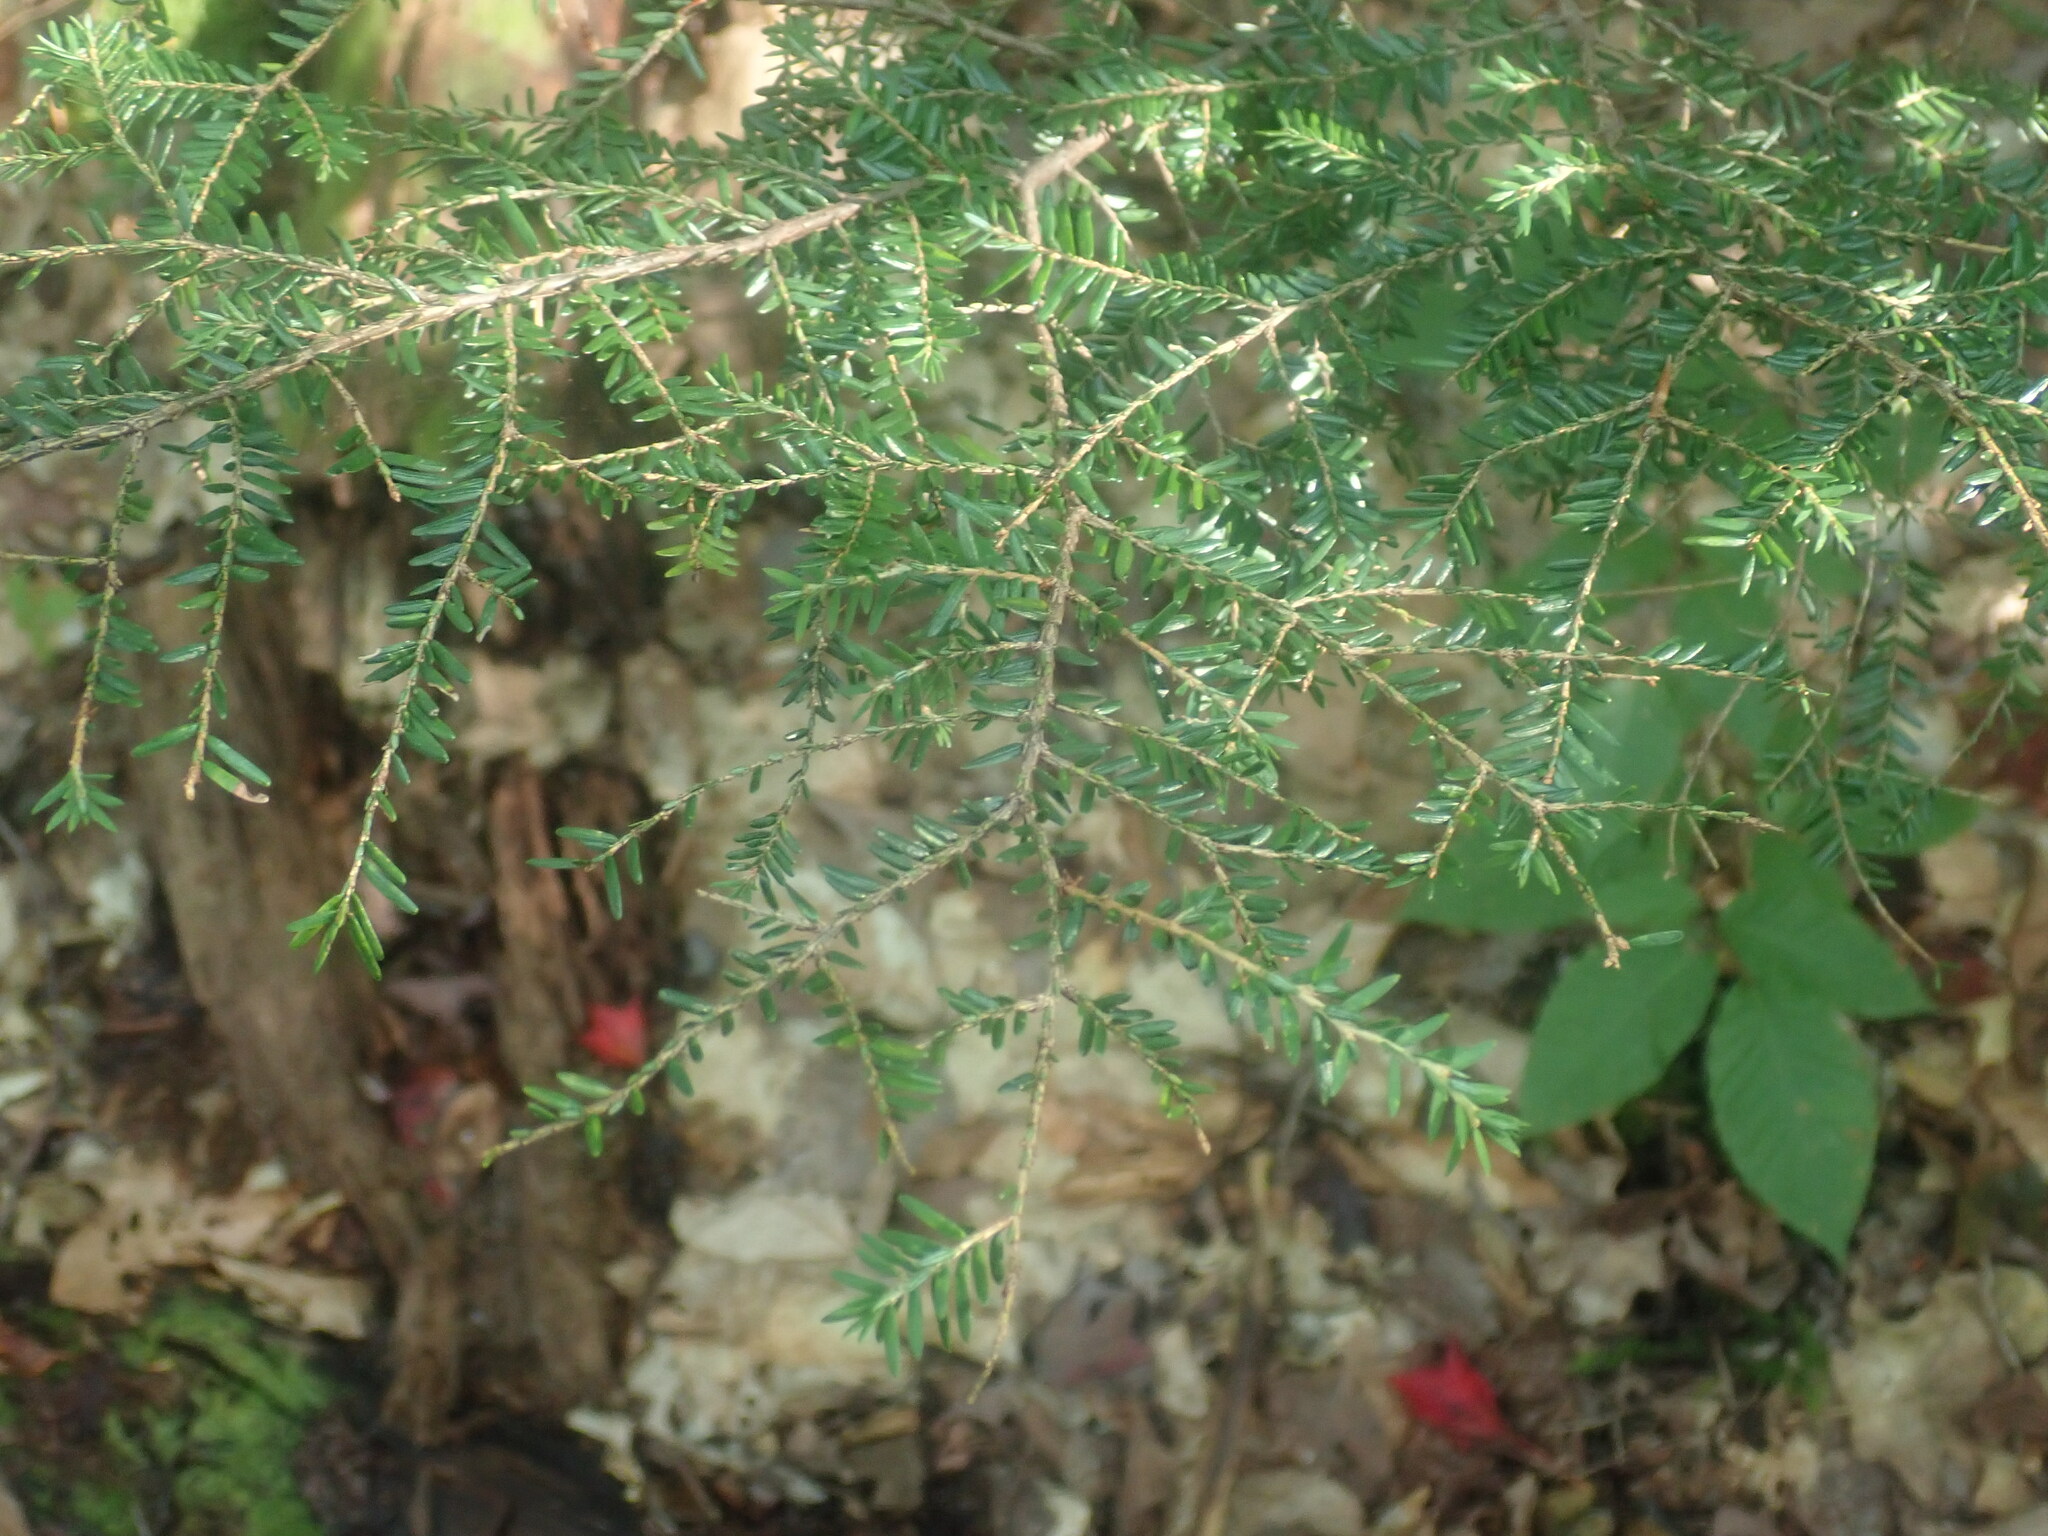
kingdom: Plantae
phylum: Tracheophyta
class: Pinopsida
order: Pinales
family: Pinaceae
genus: Tsuga
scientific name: Tsuga canadensis
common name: Eastern hemlock
